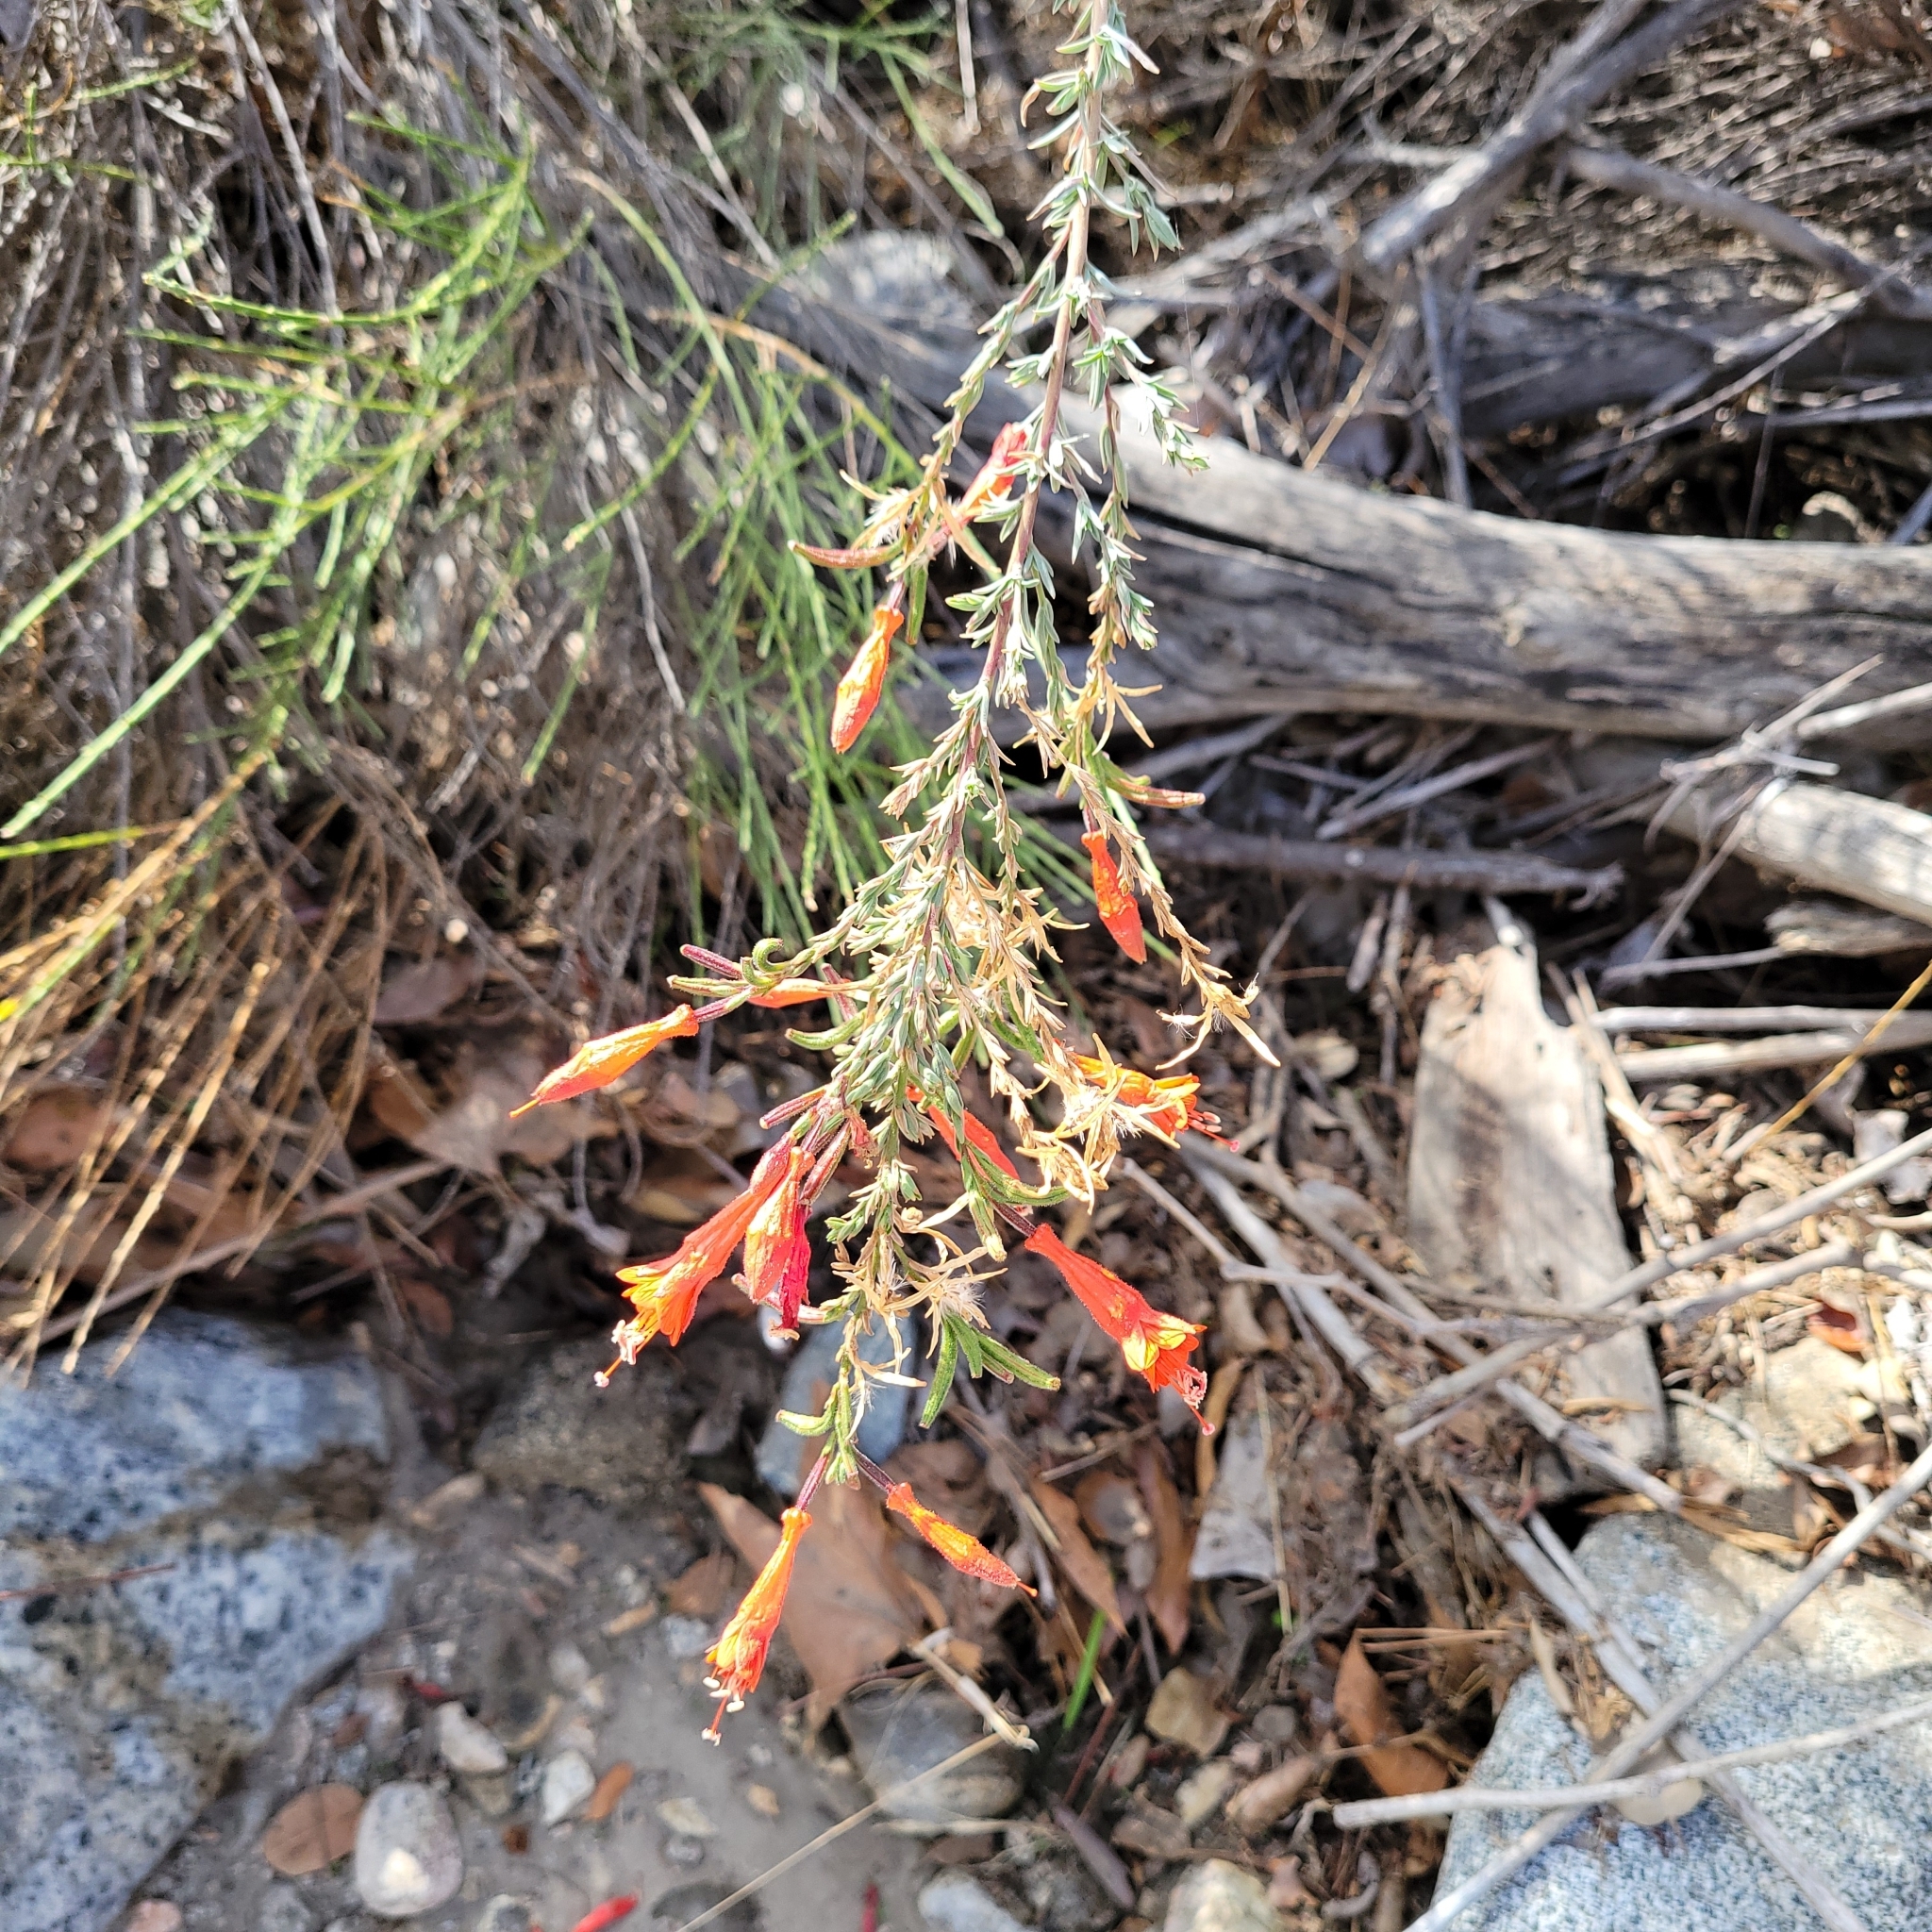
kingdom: Plantae
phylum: Tracheophyta
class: Magnoliopsida
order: Myrtales
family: Onagraceae
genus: Epilobium
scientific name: Epilobium canum
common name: California-fuchsia
